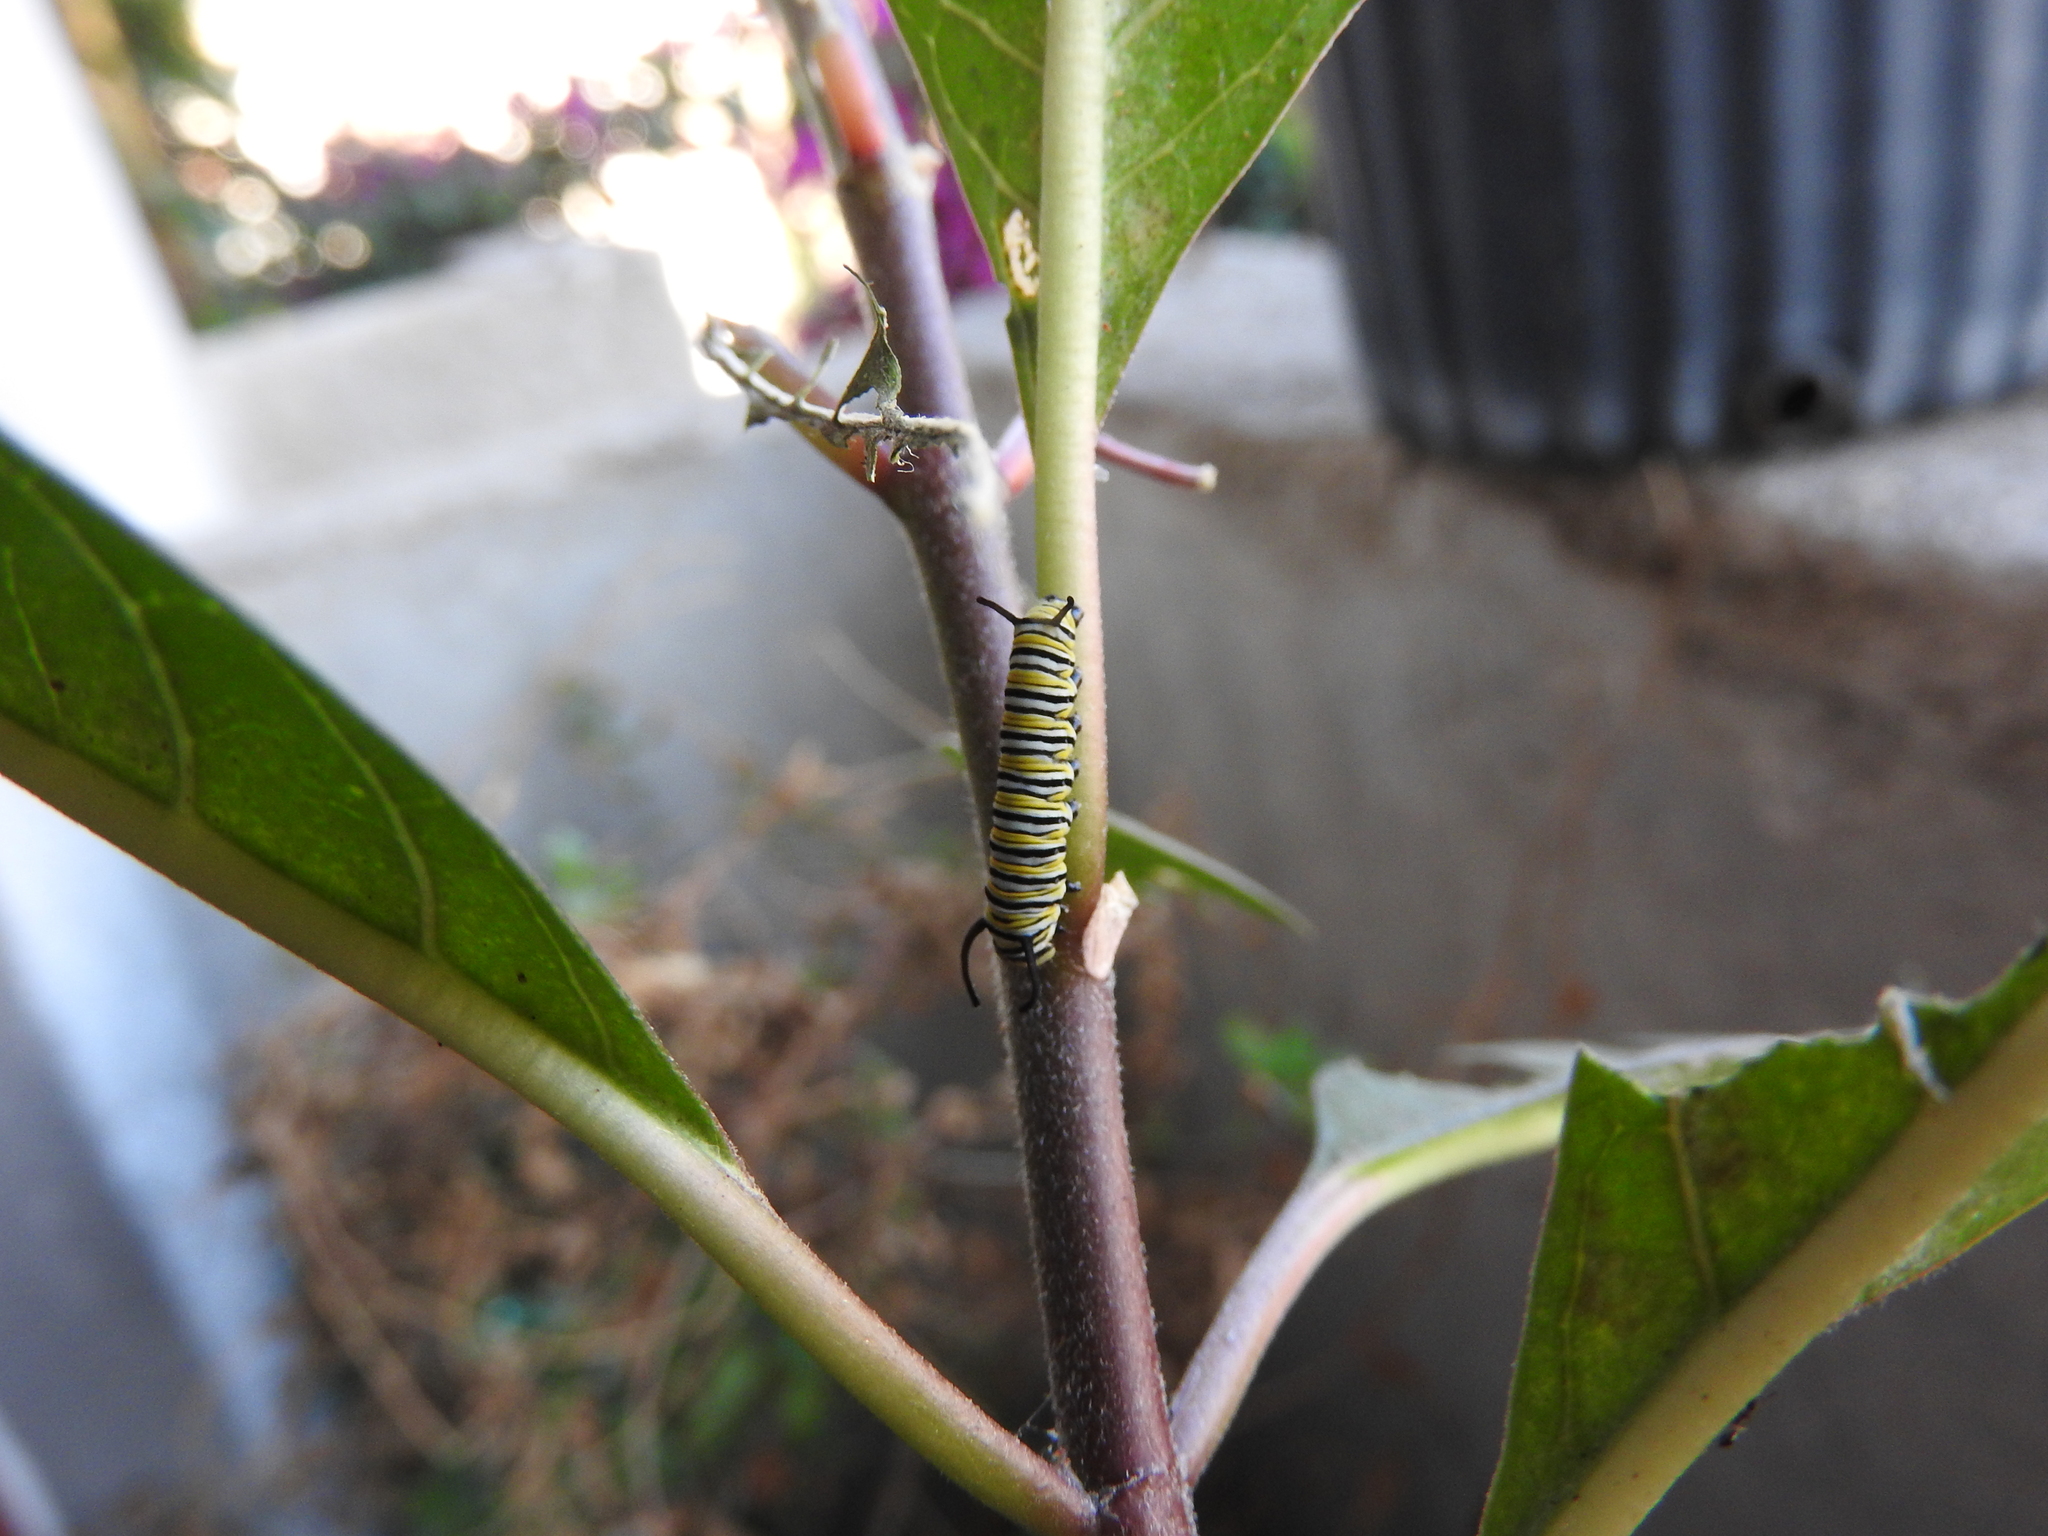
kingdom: Animalia
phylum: Arthropoda
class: Insecta
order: Lepidoptera
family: Nymphalidae
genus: Danaus
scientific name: Danaus plexippus
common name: Monarch
